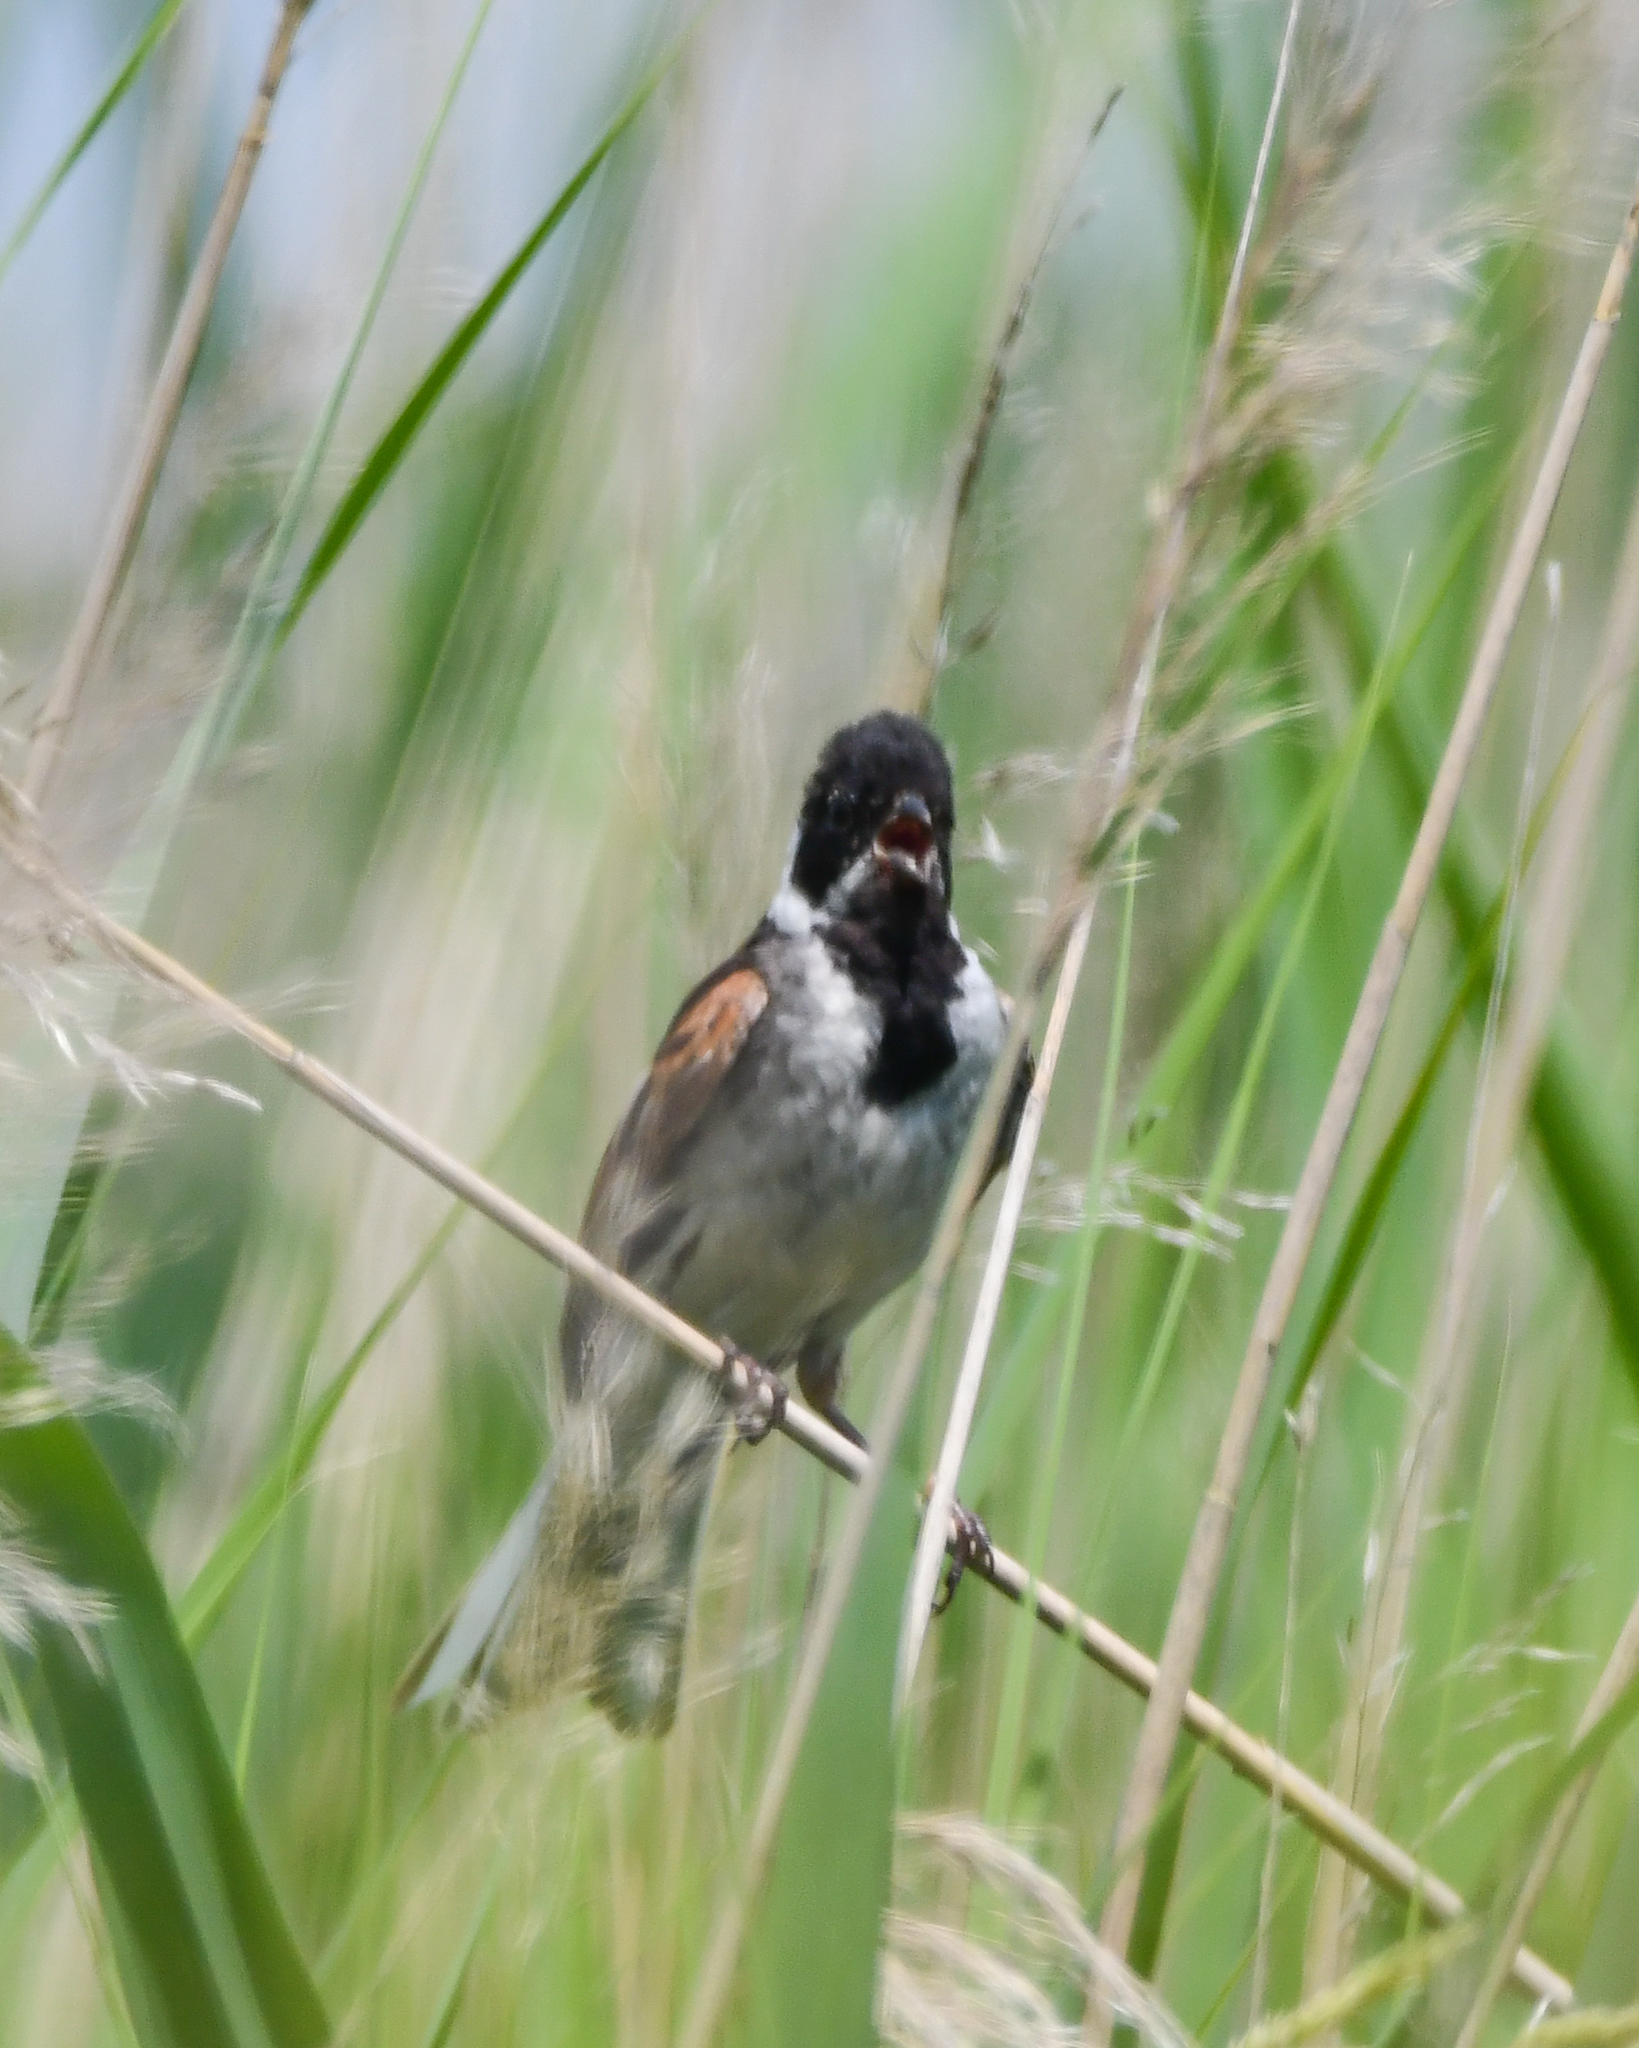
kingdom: Animalia
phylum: Chordata
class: Aves
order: Passeriformes
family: Emberizidae
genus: Emberiza
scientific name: Emberiza schoeniclus
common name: Reed bunting
